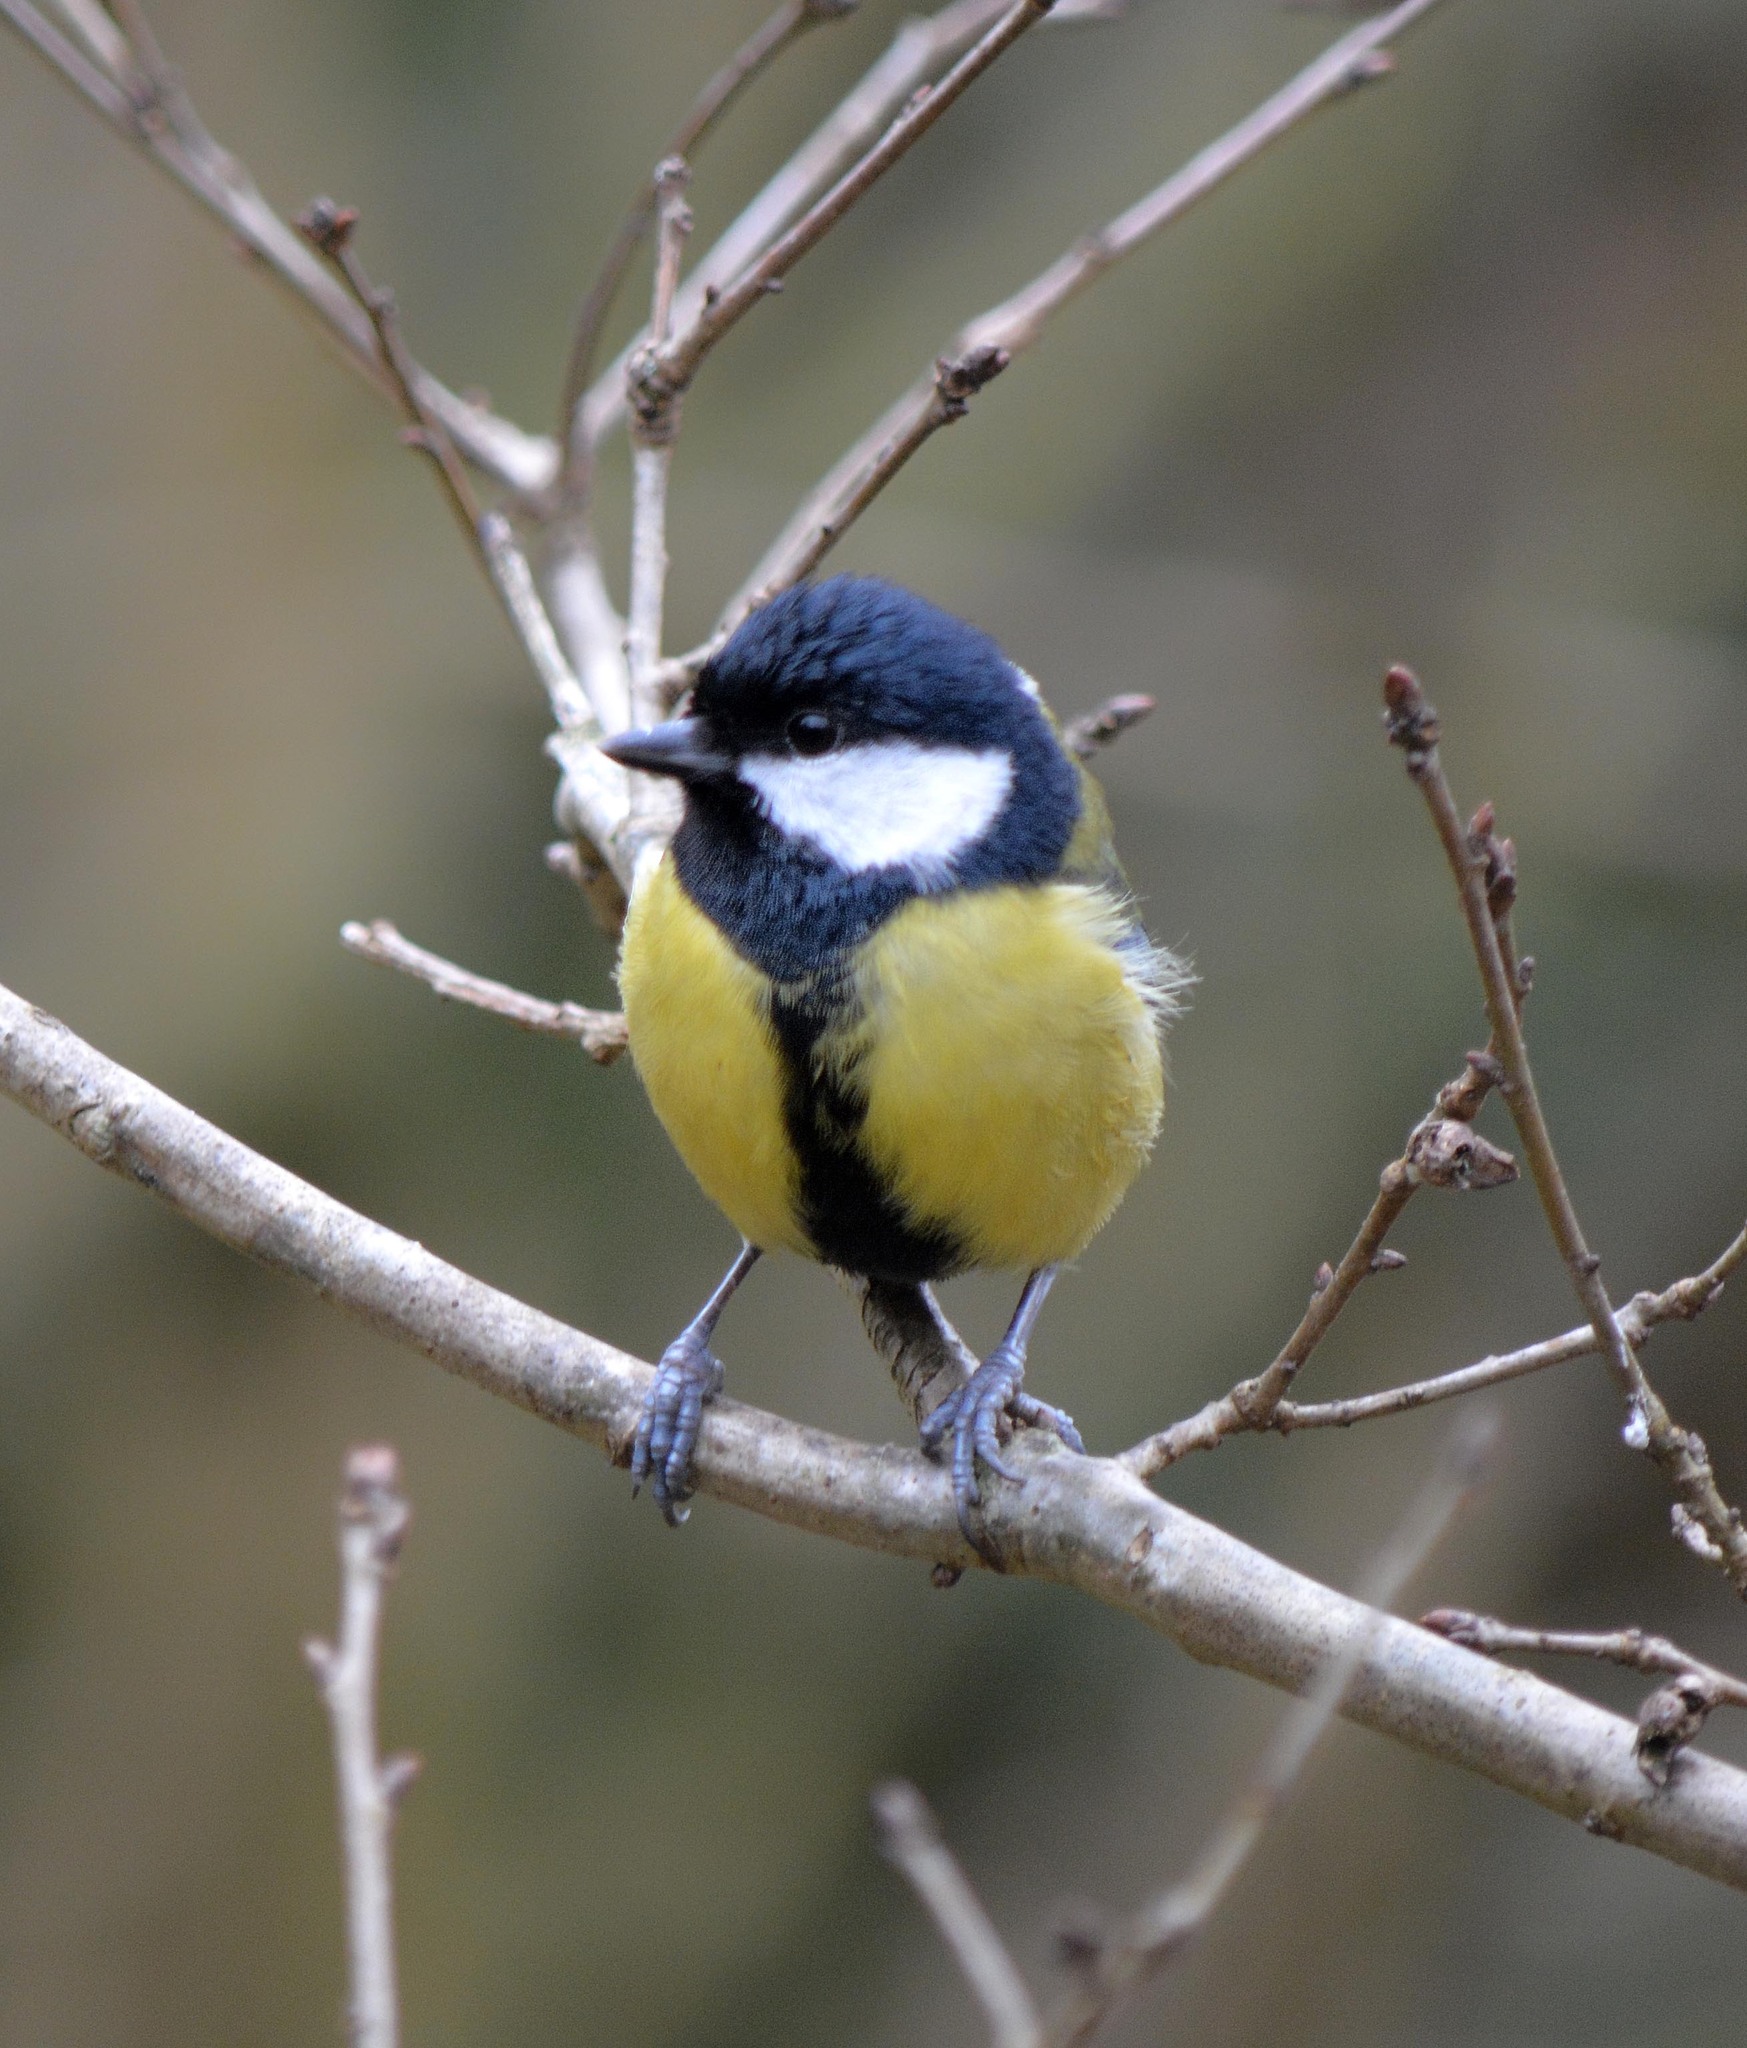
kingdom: Animalia
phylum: Chordata
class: Aves
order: Passeriformes
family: Paridae
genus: Parus
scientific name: Parus major
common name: Great tit
